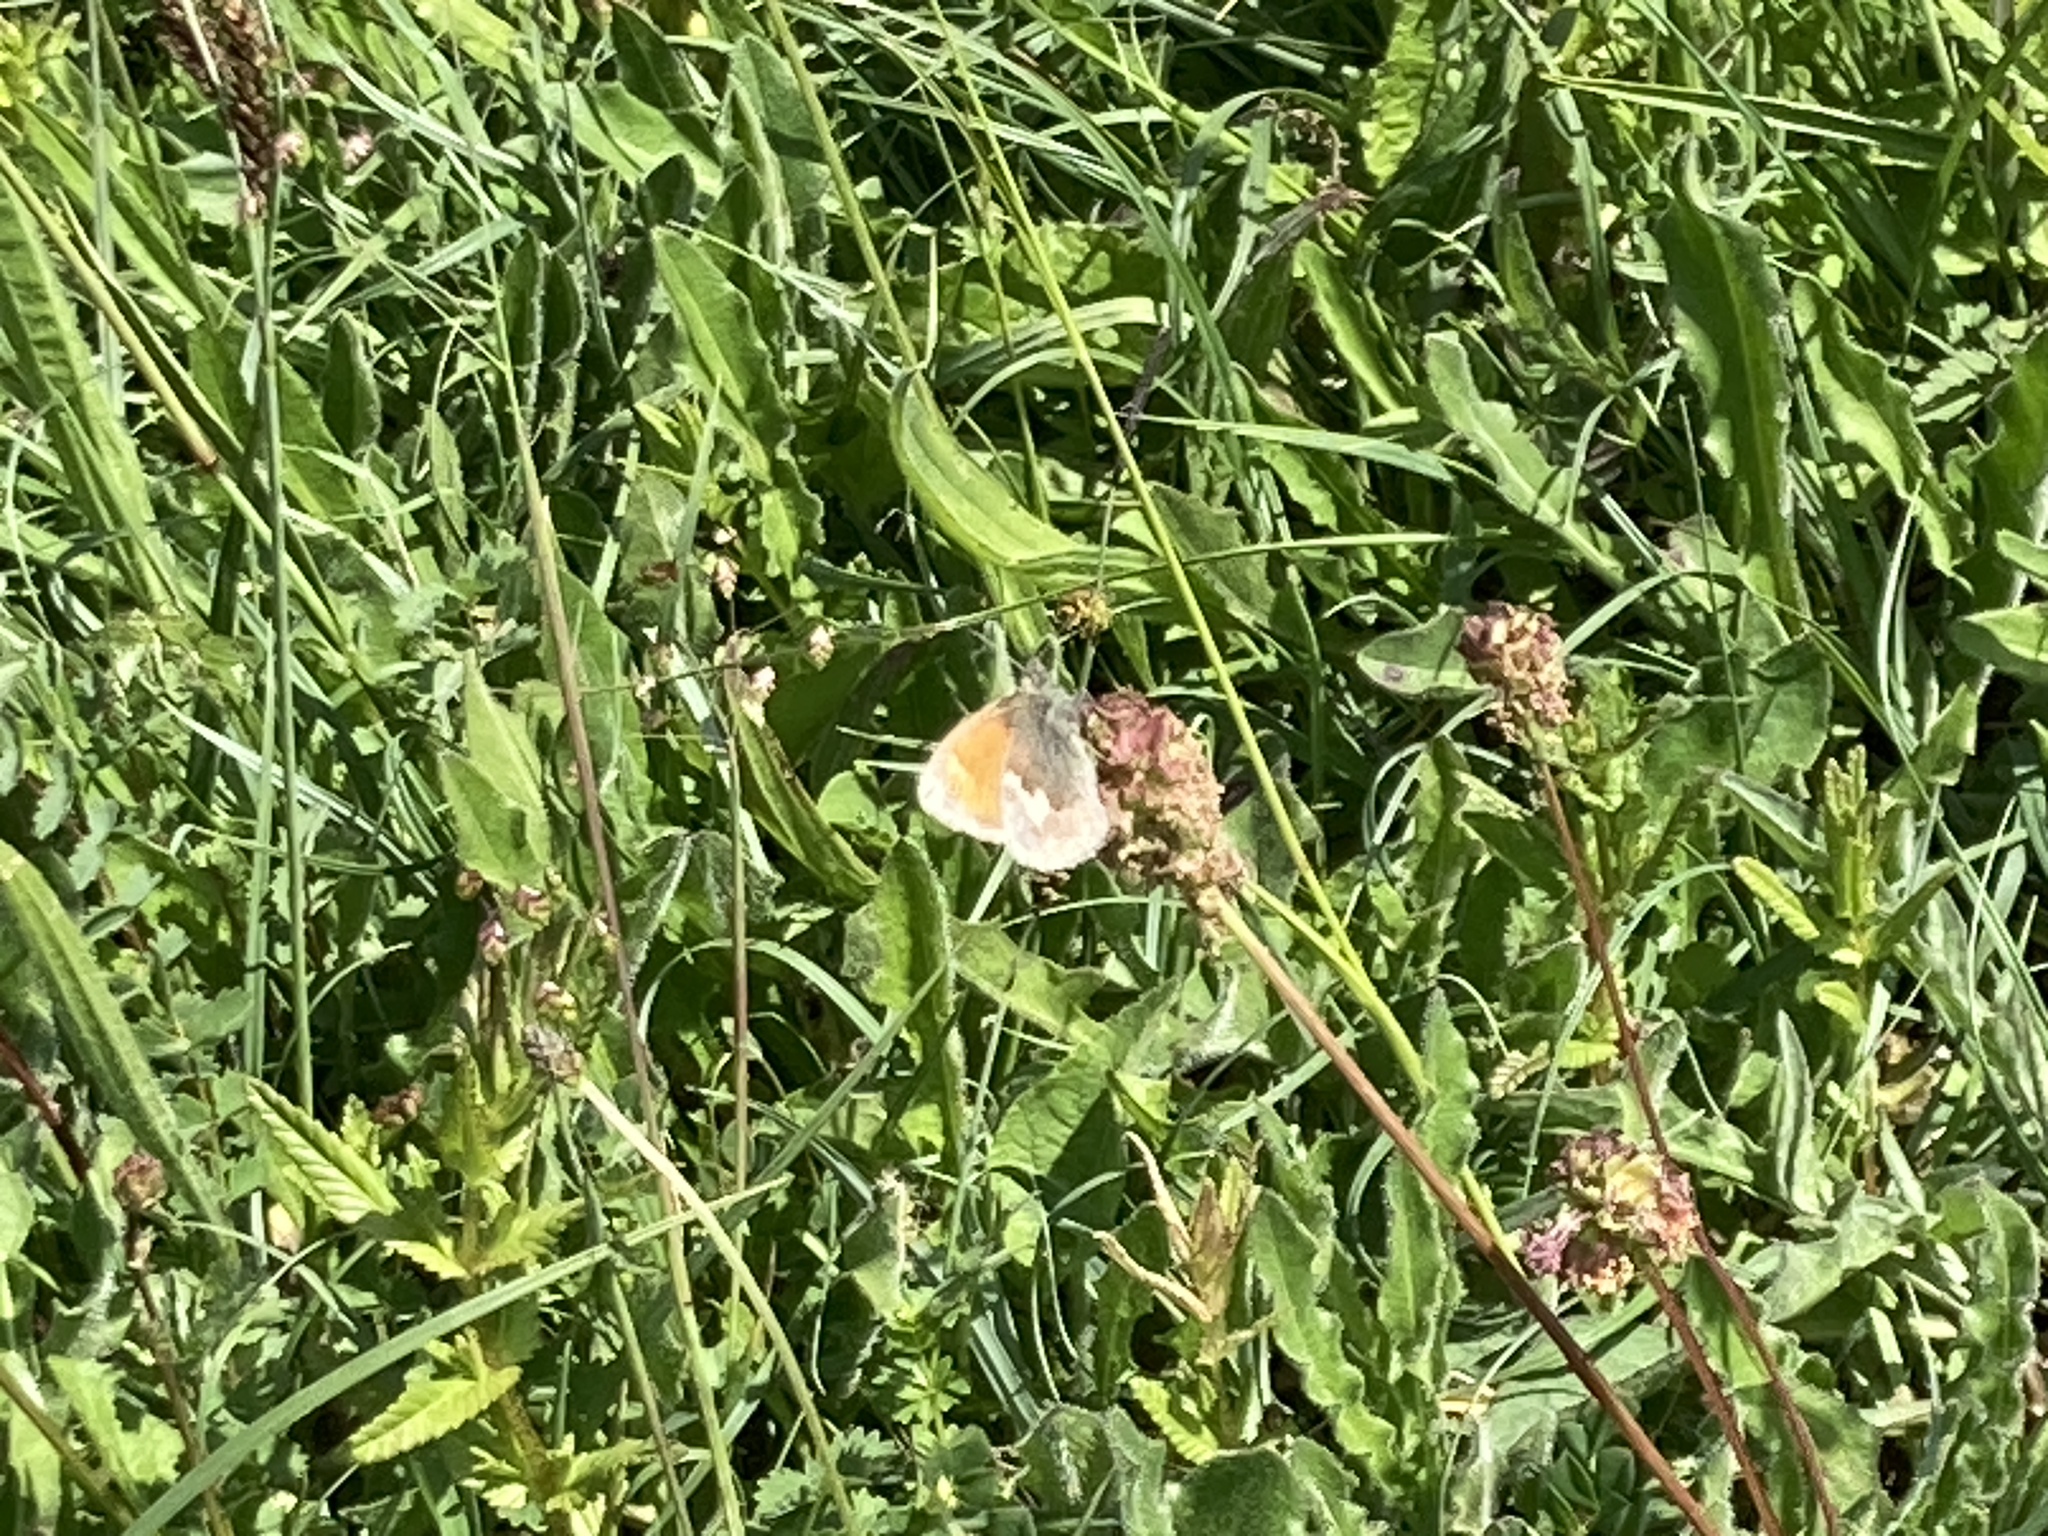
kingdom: Animalia
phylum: Arthropoda
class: Insecta
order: Lepidoptera
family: Nymphalidae
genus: Coenonympha
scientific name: Coenonympha pamphilus
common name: Small heath
